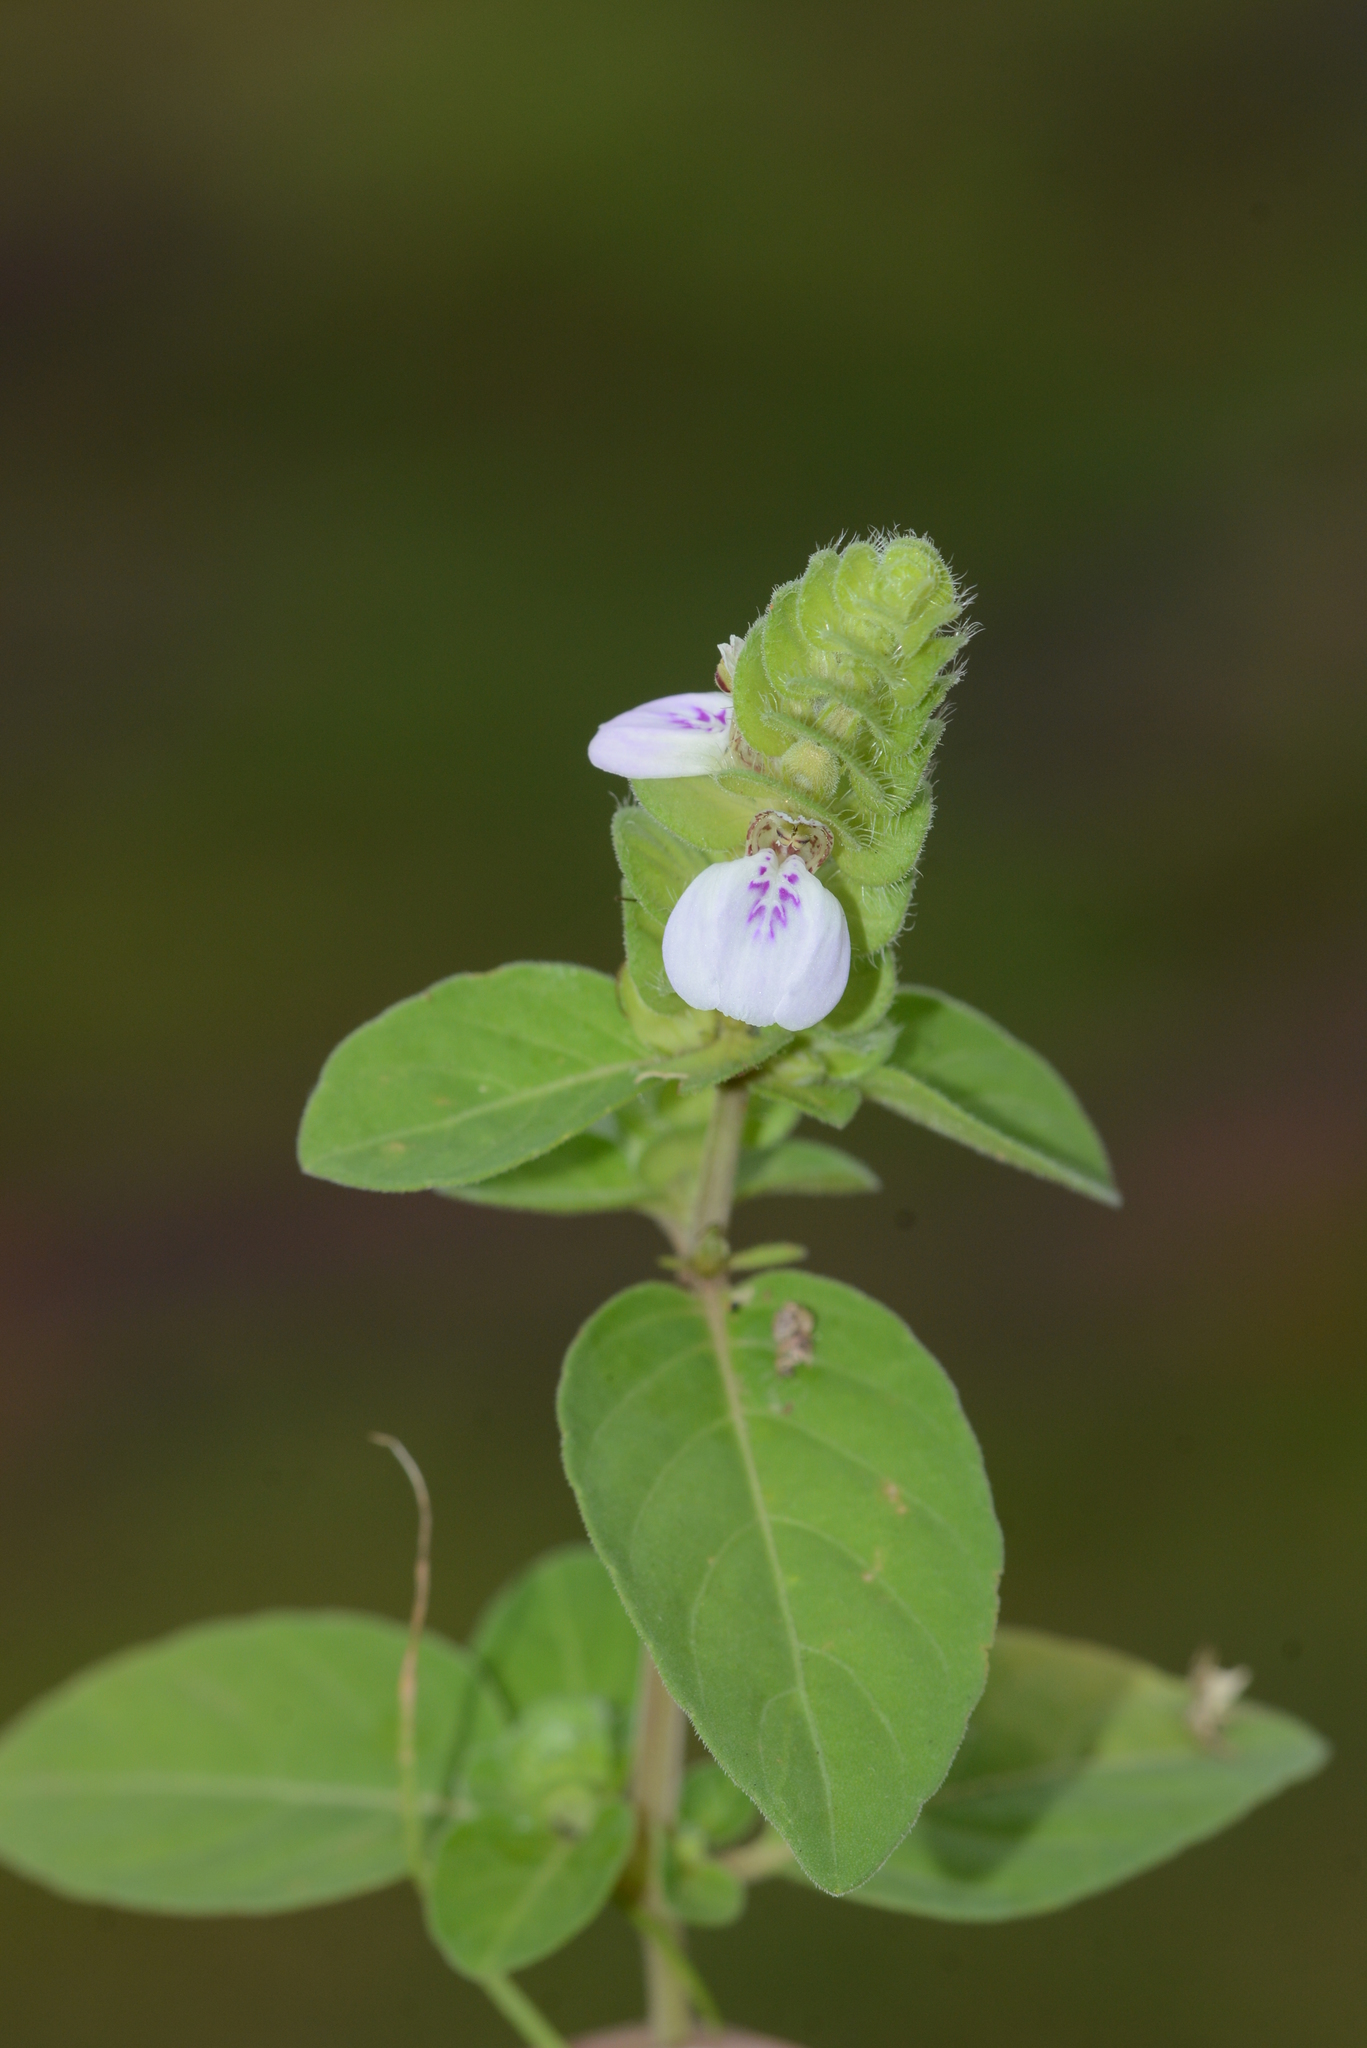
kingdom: Plantae
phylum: Tracheophyta
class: Magnoliopsida
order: Lamiales
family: Acanthaceae
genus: Justicia
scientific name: Justicia glauca
